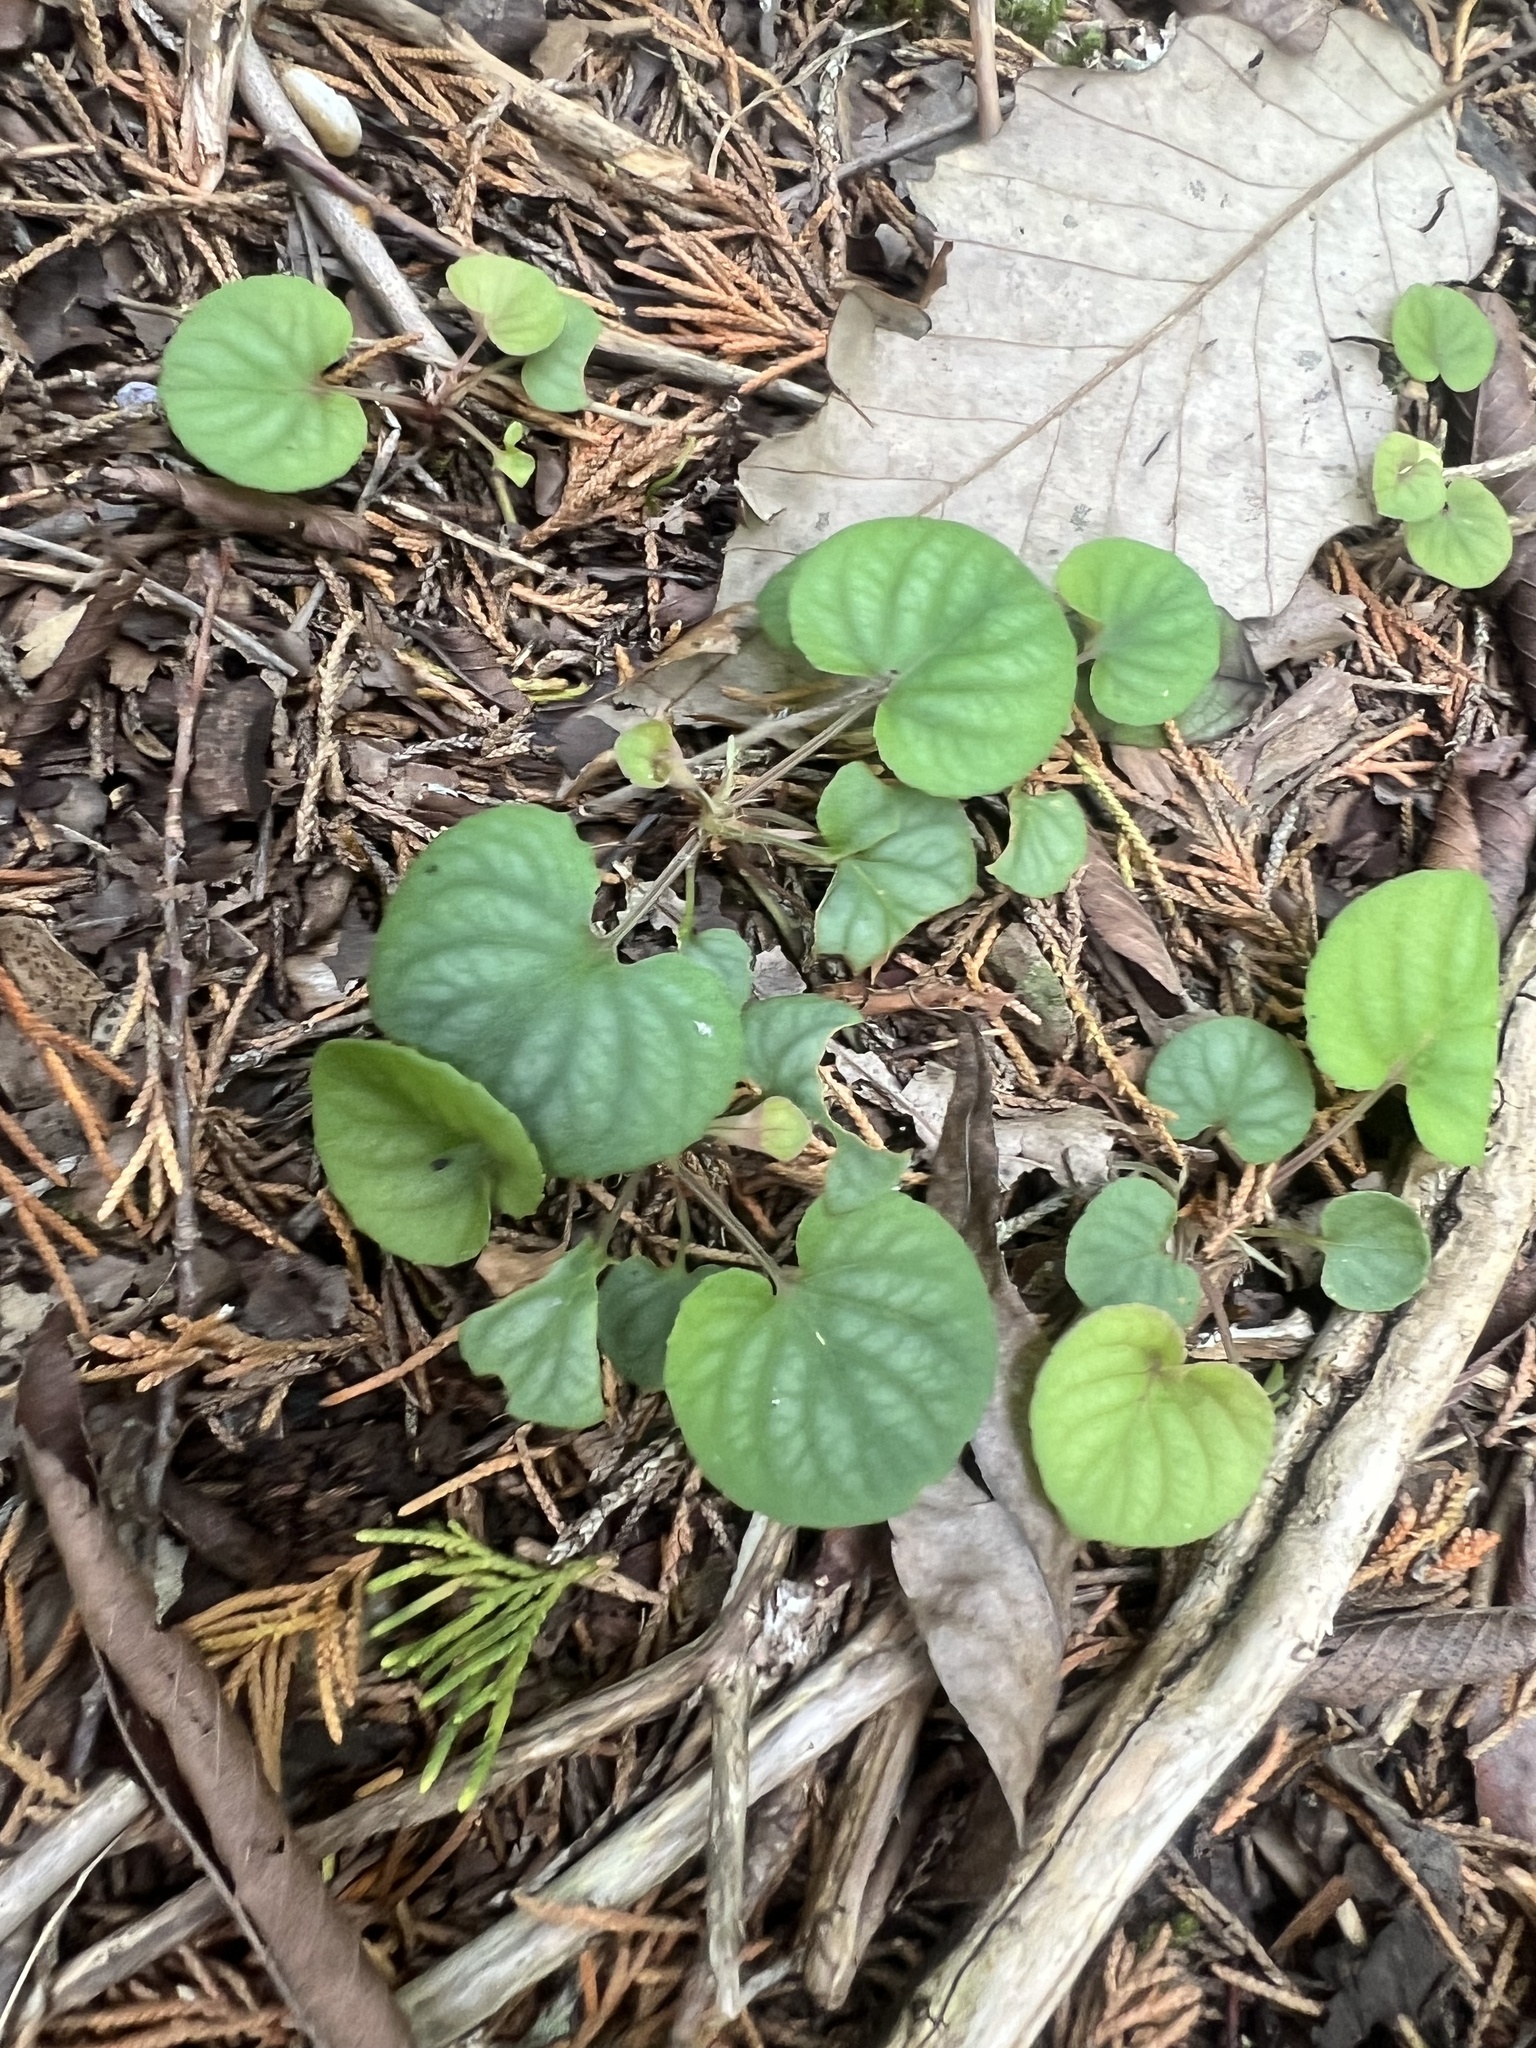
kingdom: Plantae
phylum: Tracheophyta
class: Magnoliopsida
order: Malpighiales
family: Violaceae
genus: Viola
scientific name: Viola walteri
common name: Prostrate southern violet
